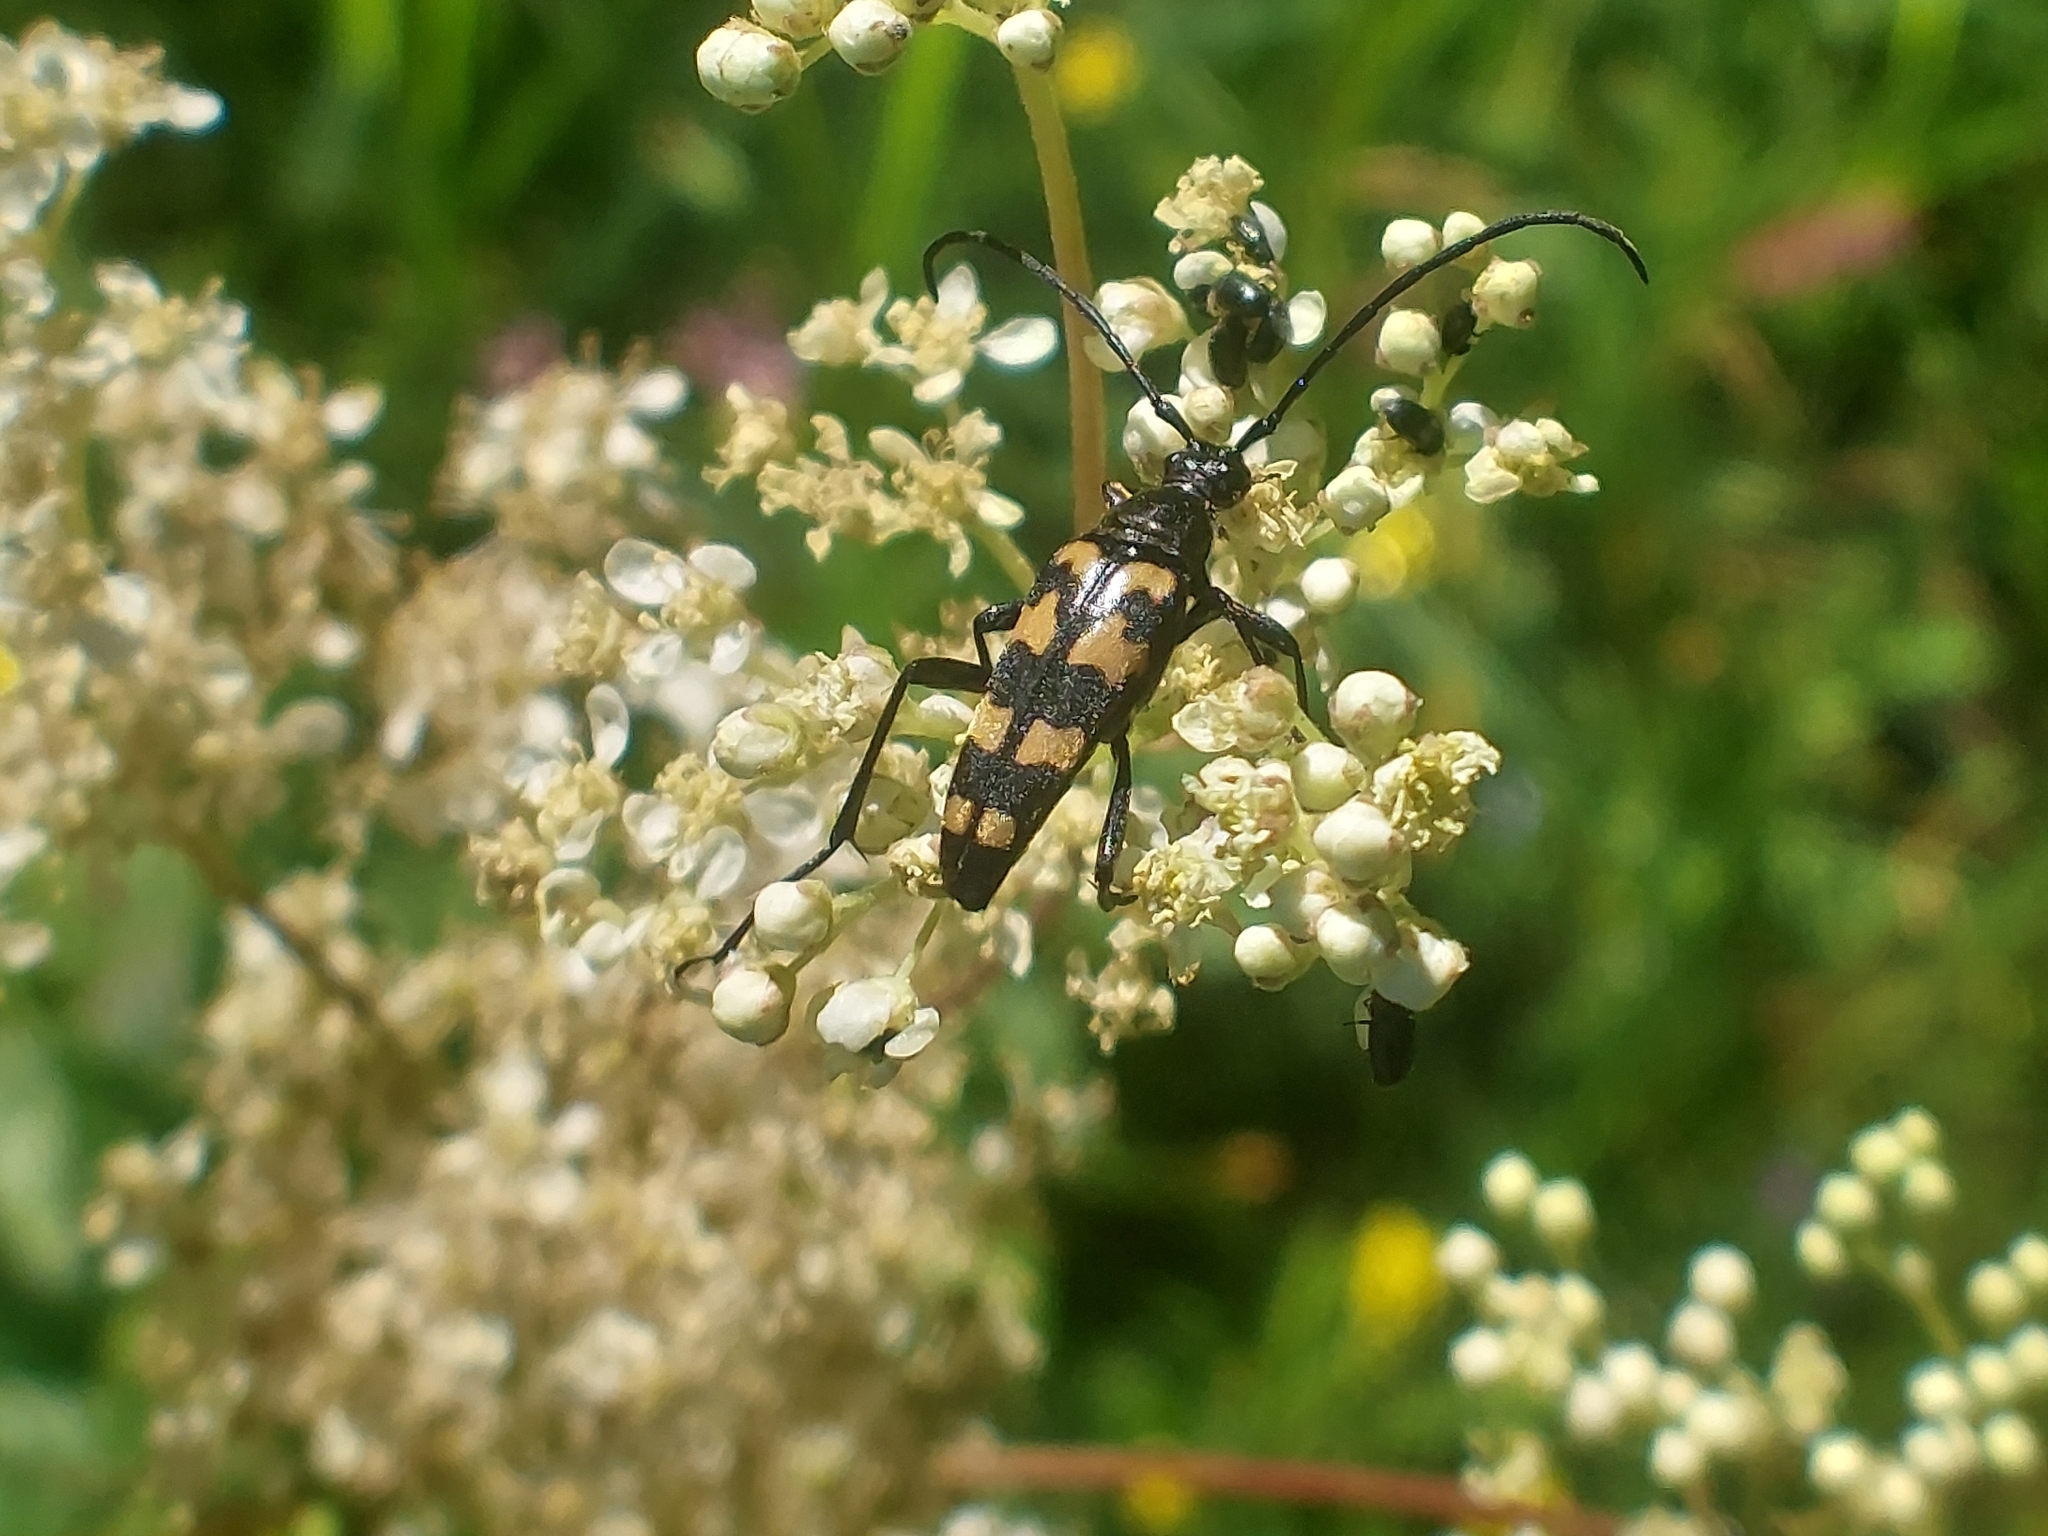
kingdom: Animalia
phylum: Arthropoda
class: Insecta
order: Coleoptera
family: Cerambycidae
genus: Leptura
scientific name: Leptura quadrifasciata
